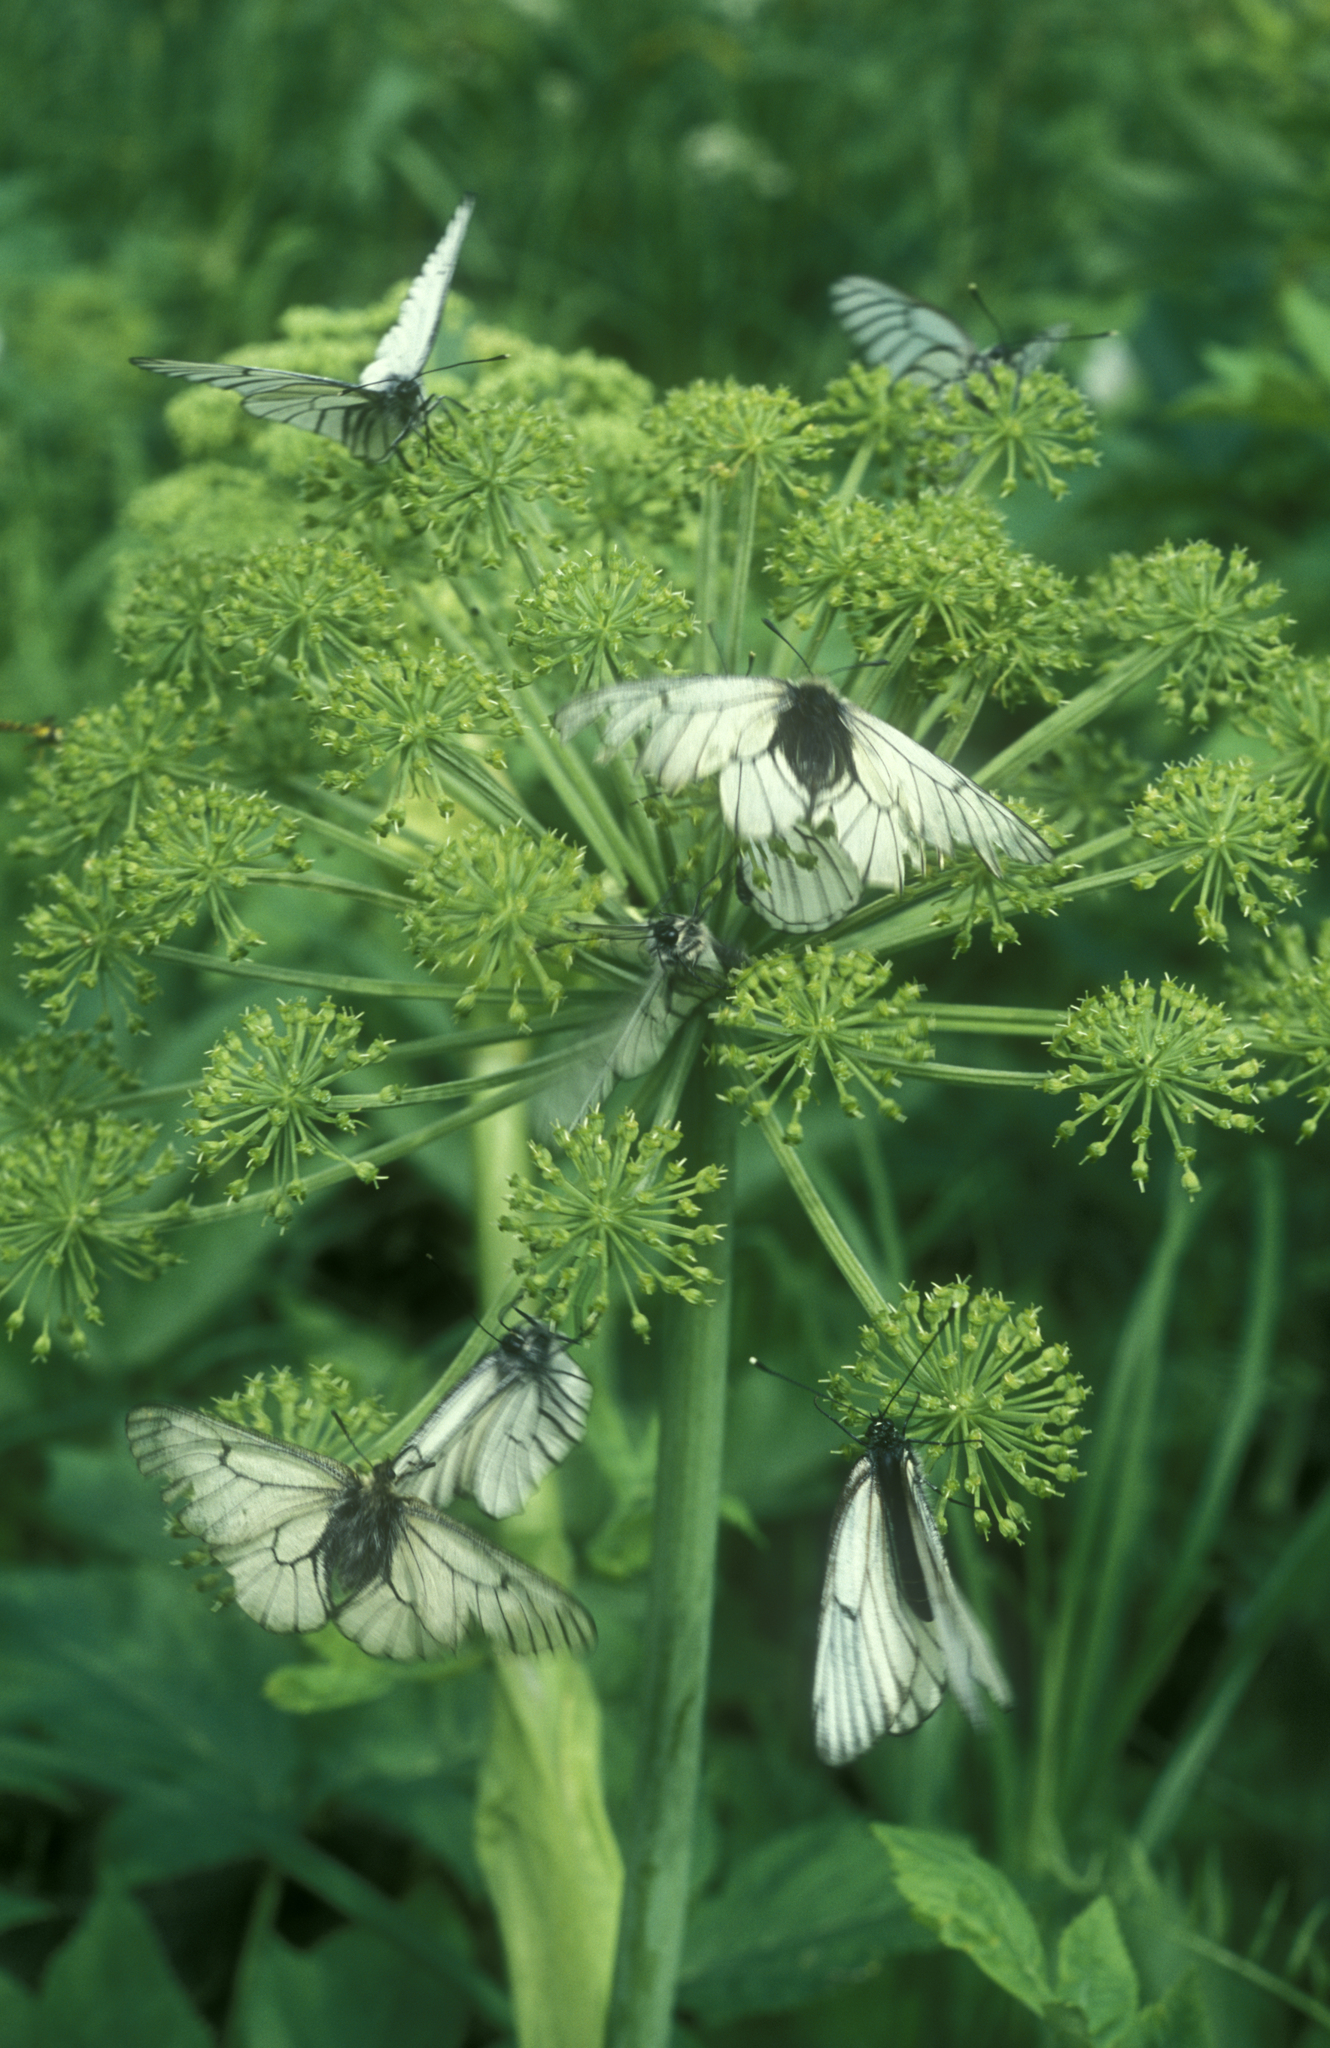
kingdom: Plantae
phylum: Tracheophyta
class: Magnoliopsida
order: Apiales
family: Apiaceae
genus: Angelica
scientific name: Angelica decurrens
